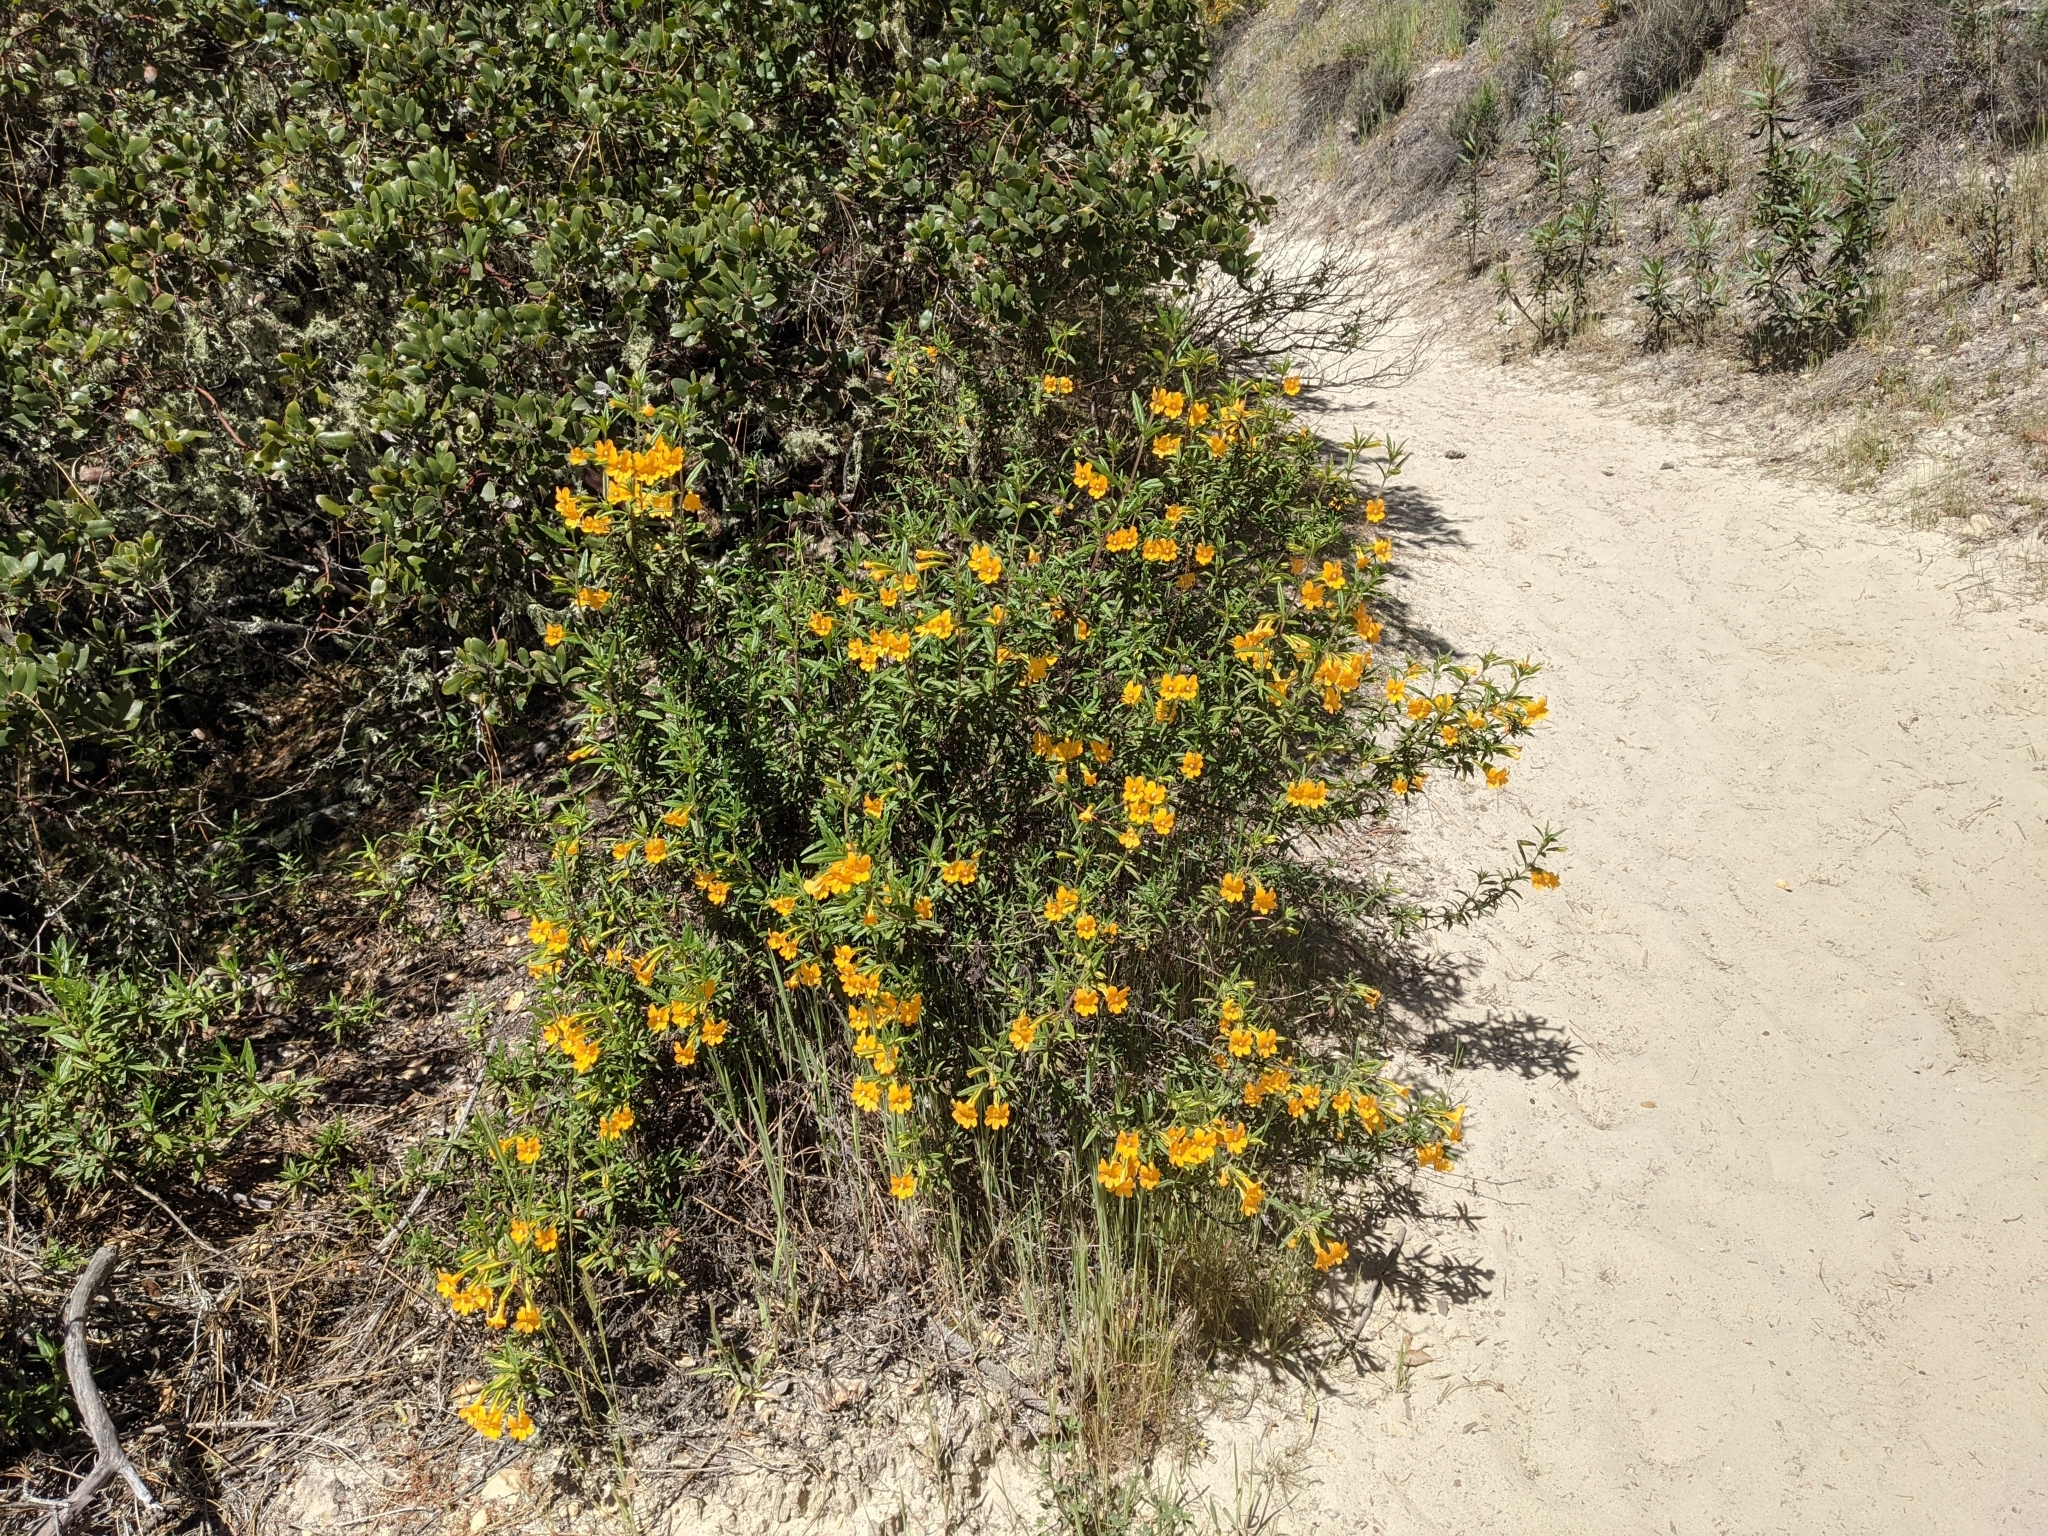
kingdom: Plantae
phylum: Tracheophyta
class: Magnoliopsida
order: Lamiales
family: Phrymaceae
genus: Diplacus
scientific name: Diplacus aurantiacus
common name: Bush monkey-flower
